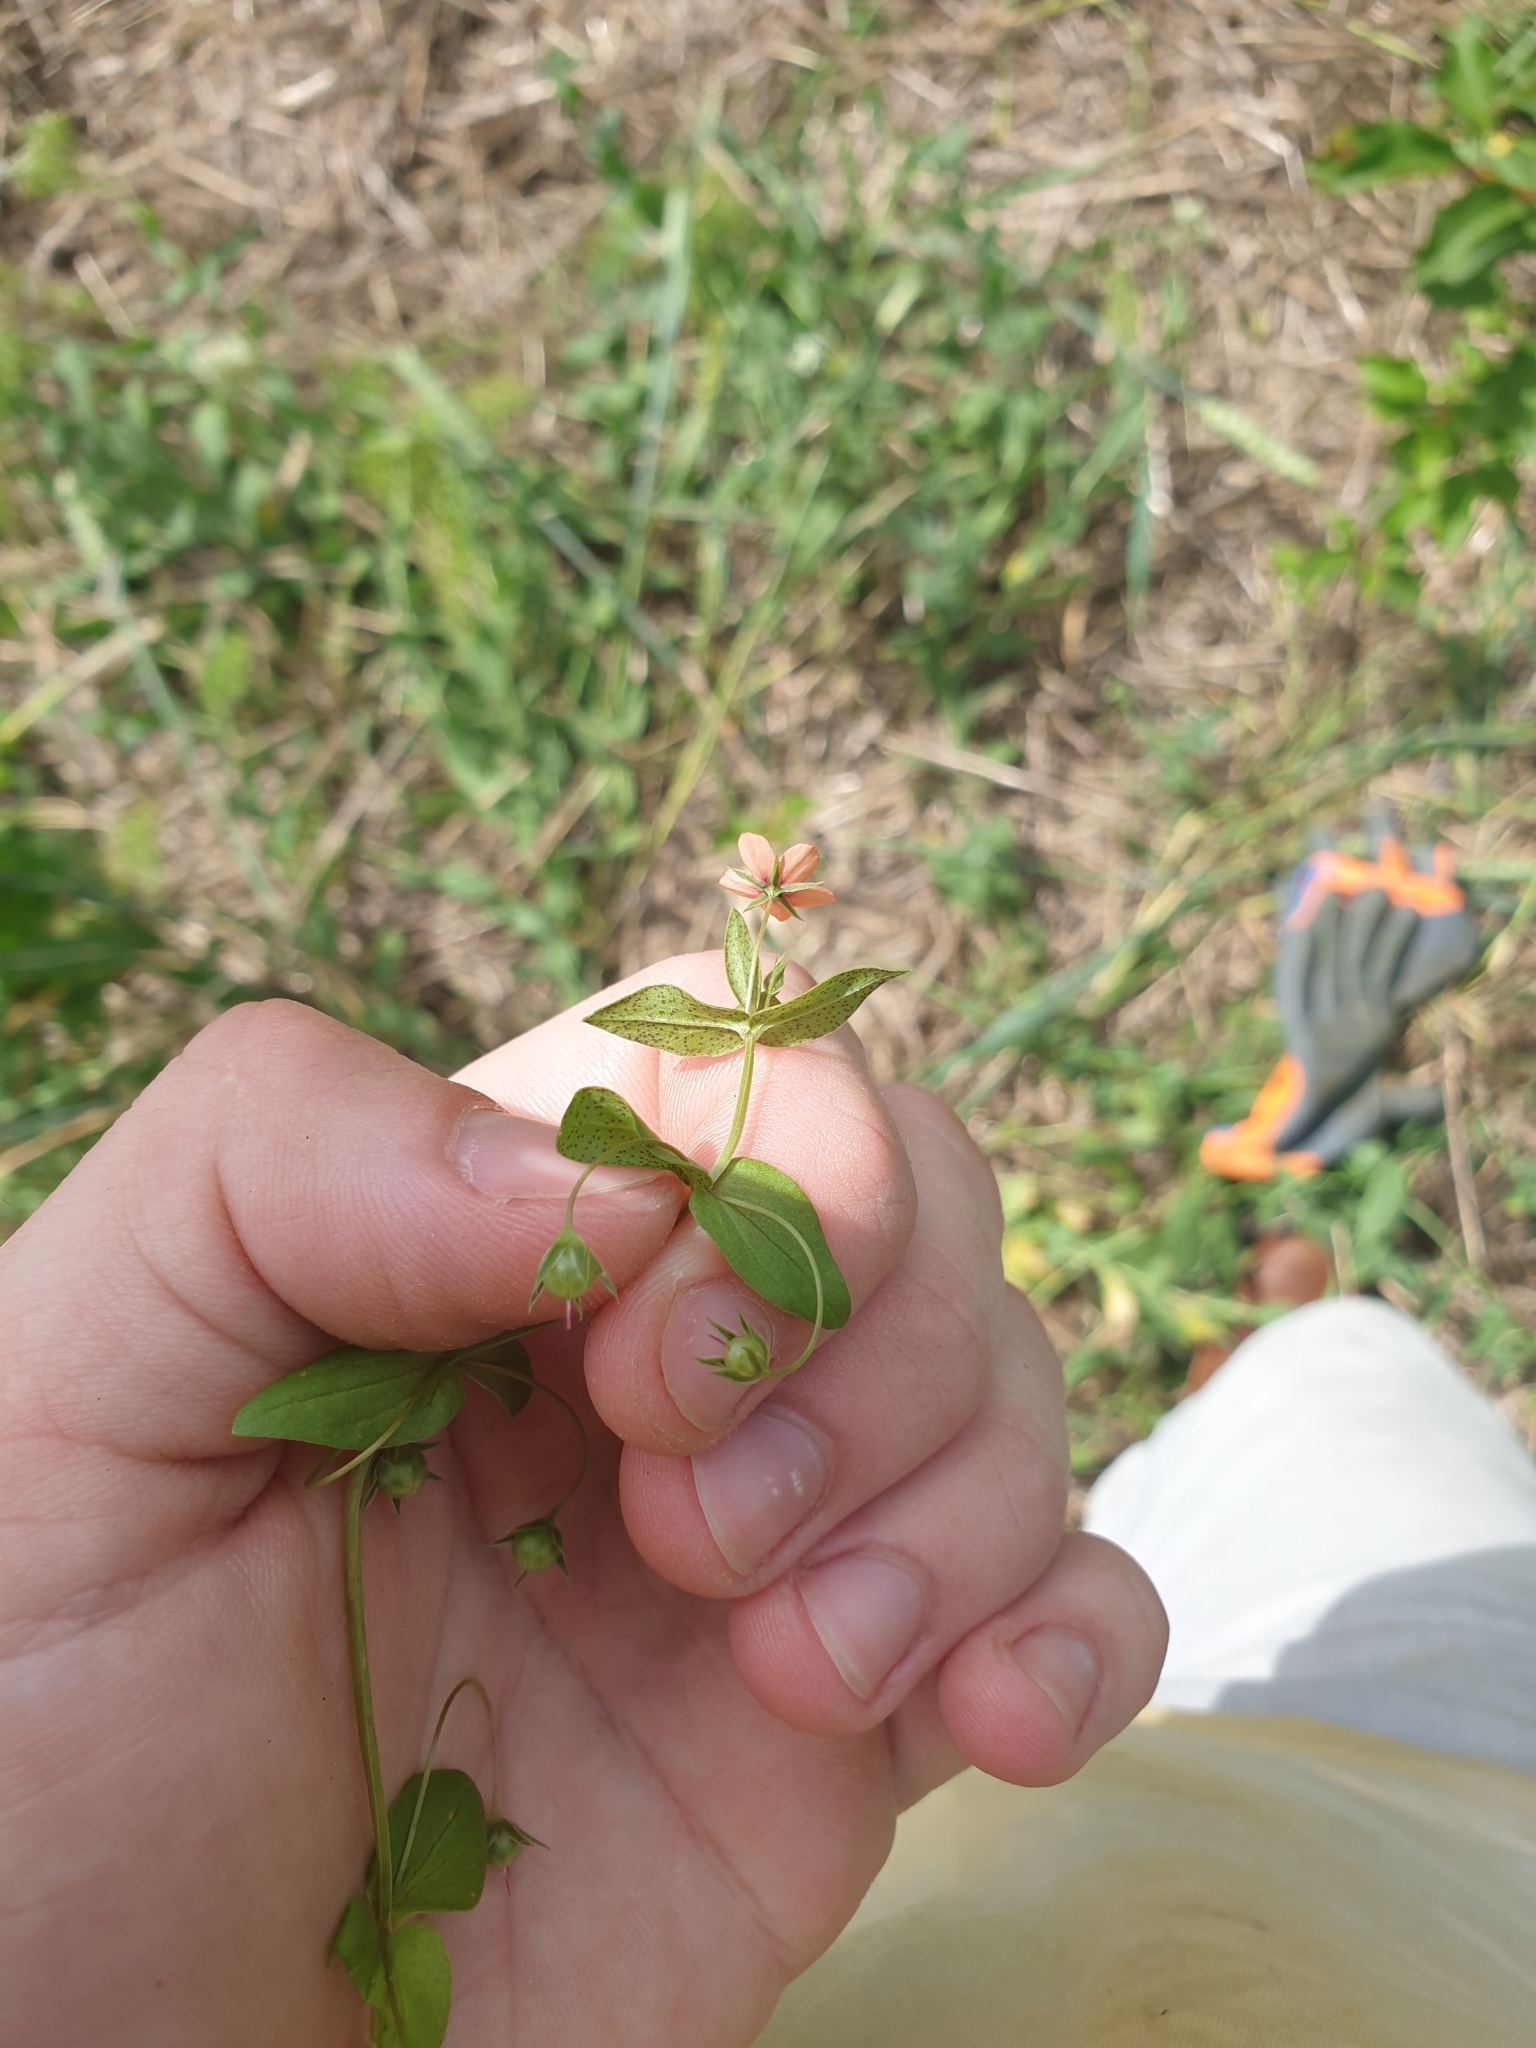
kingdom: Plantae
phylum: Tracheophyta
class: Magnoliopsida
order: Ericales
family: Primulaceae
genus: Lysimachia
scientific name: Lysimachia arvensis
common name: Scarlet pimpernel
